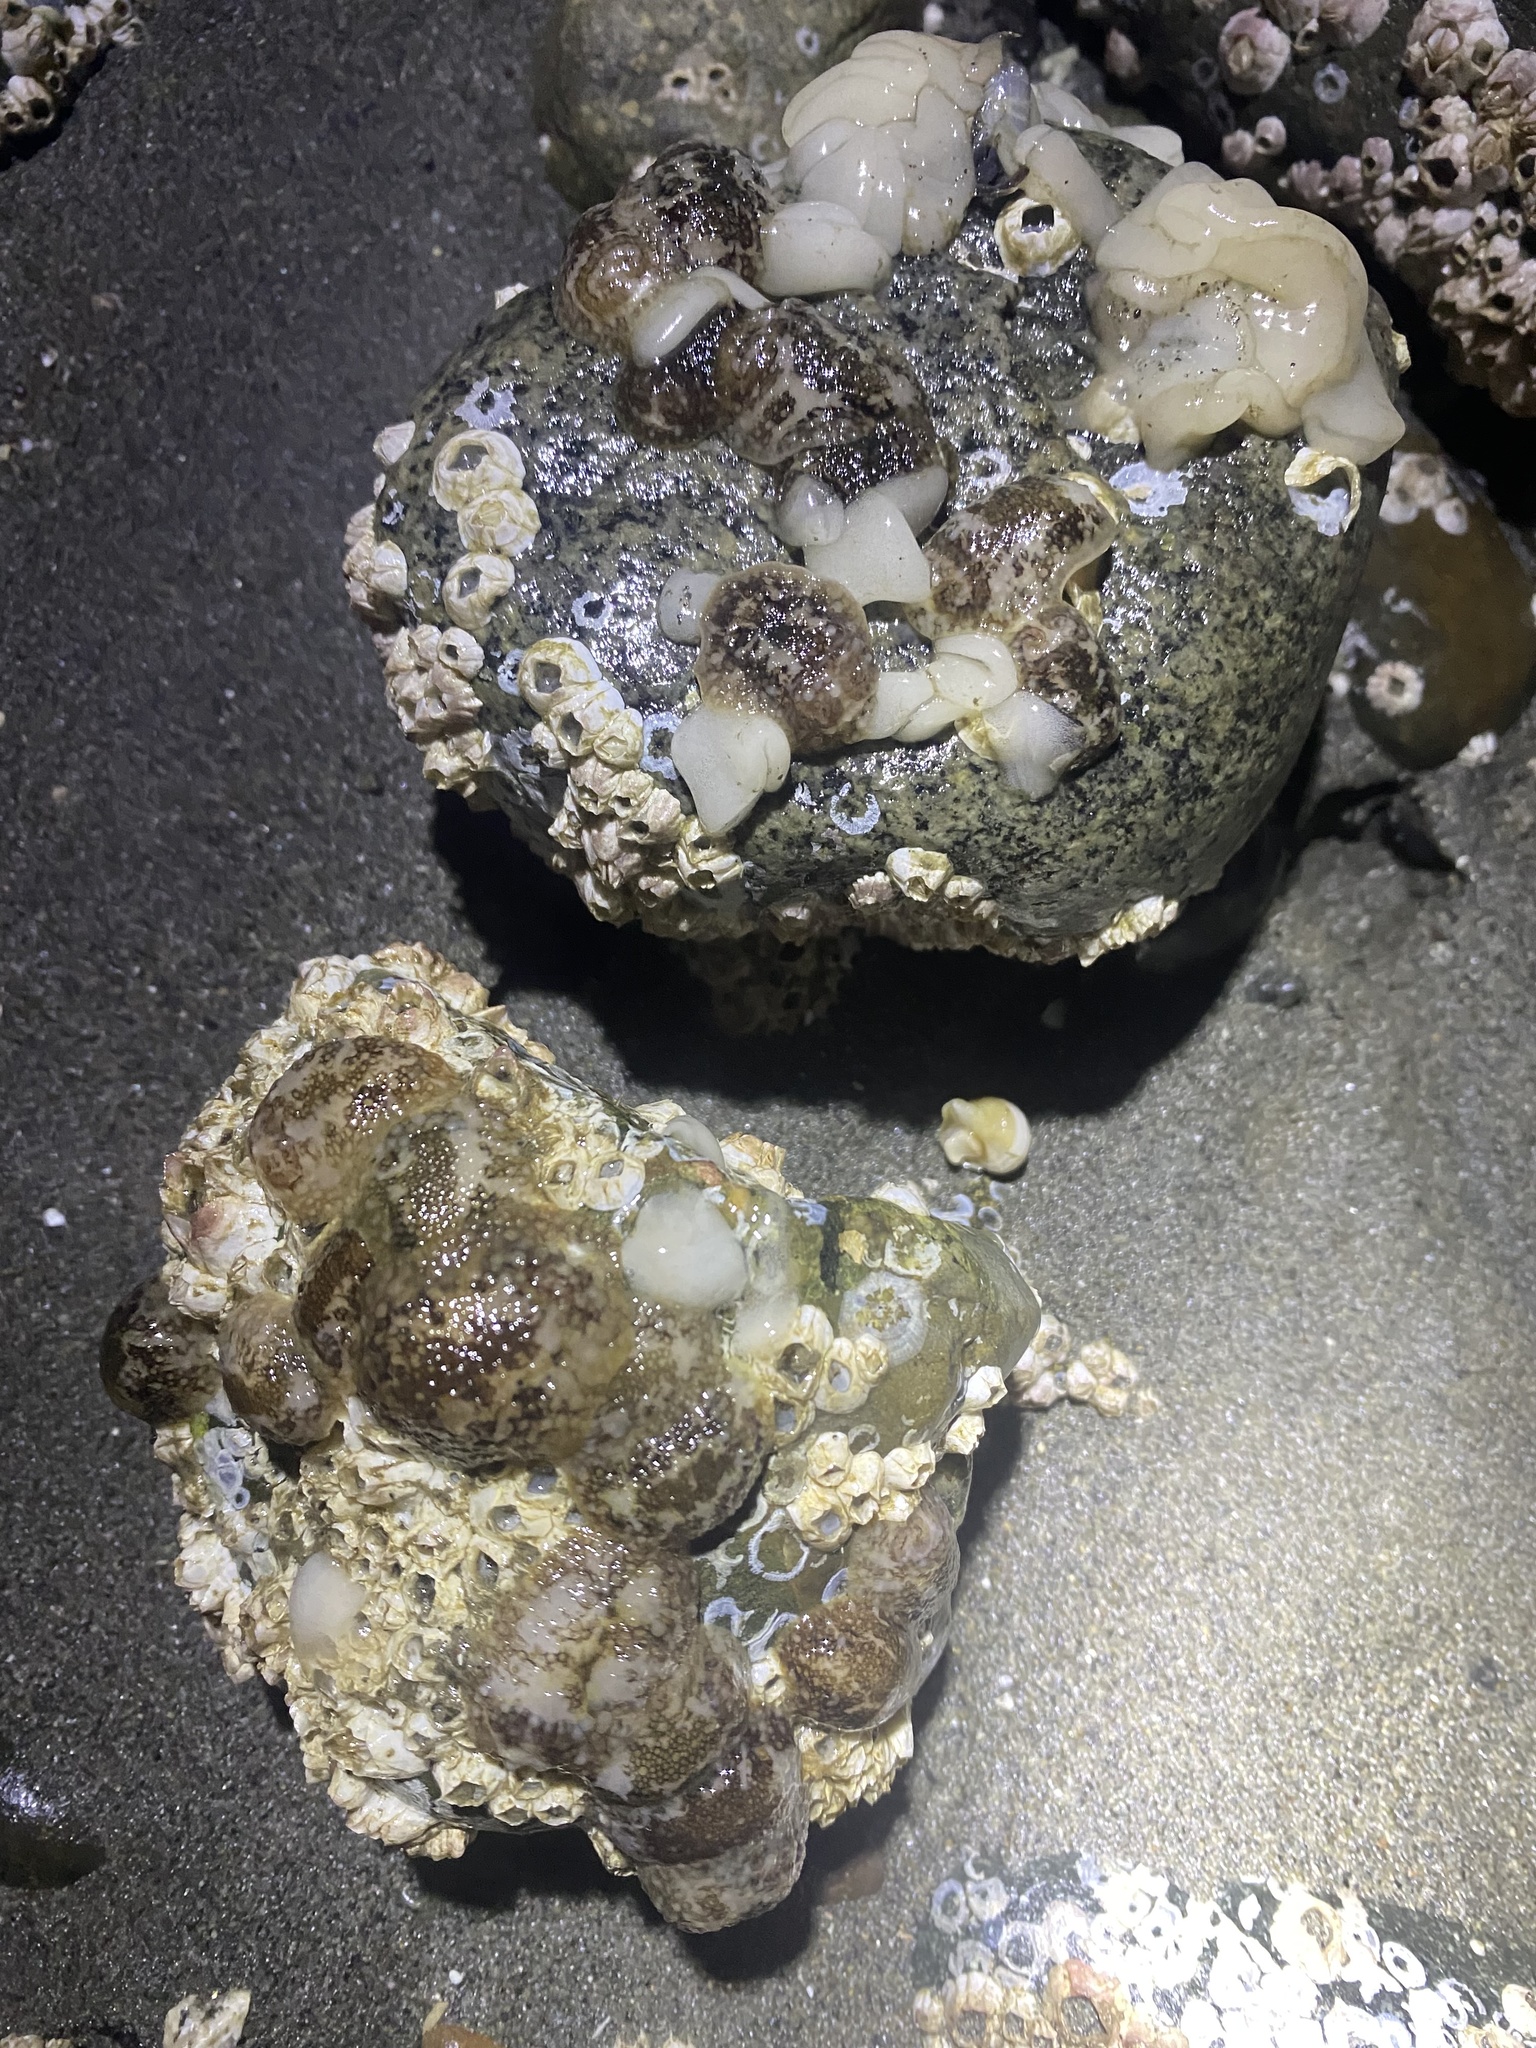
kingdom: Animalia
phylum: Mollusca
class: Gastropoda
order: Nudibranchia
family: Onchidorididae
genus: Onchidoris
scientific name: Onchidoris bilamellata
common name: Barnacle-eating onchidoris
